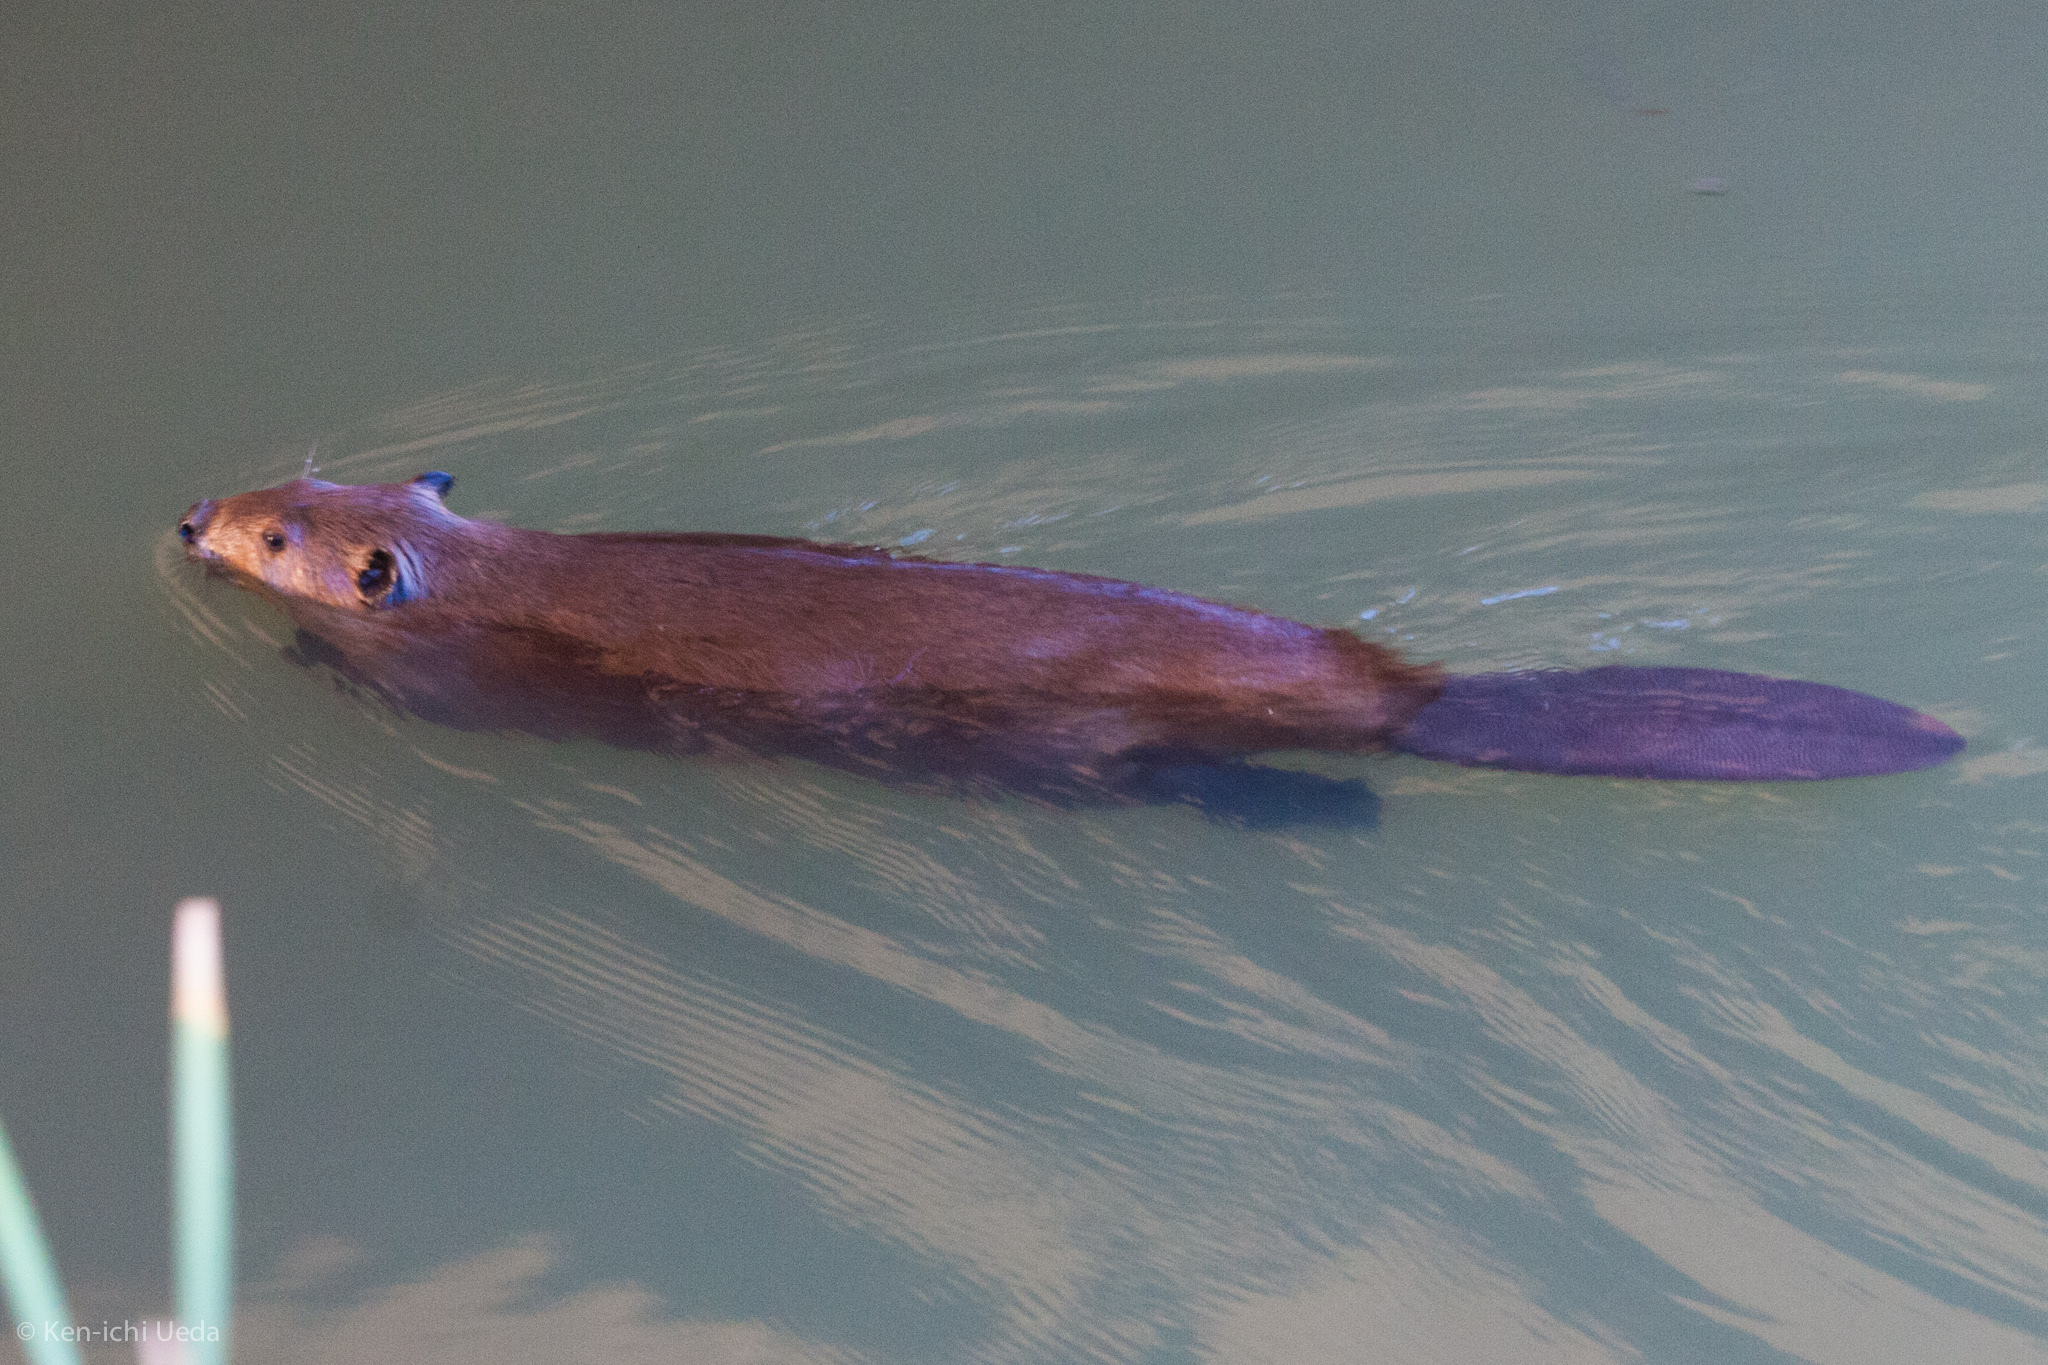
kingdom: Animalia
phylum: Chordata
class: Mammalia
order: Rodentia
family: Castoridae
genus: Castor
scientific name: Castor canadensis
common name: American beaver
